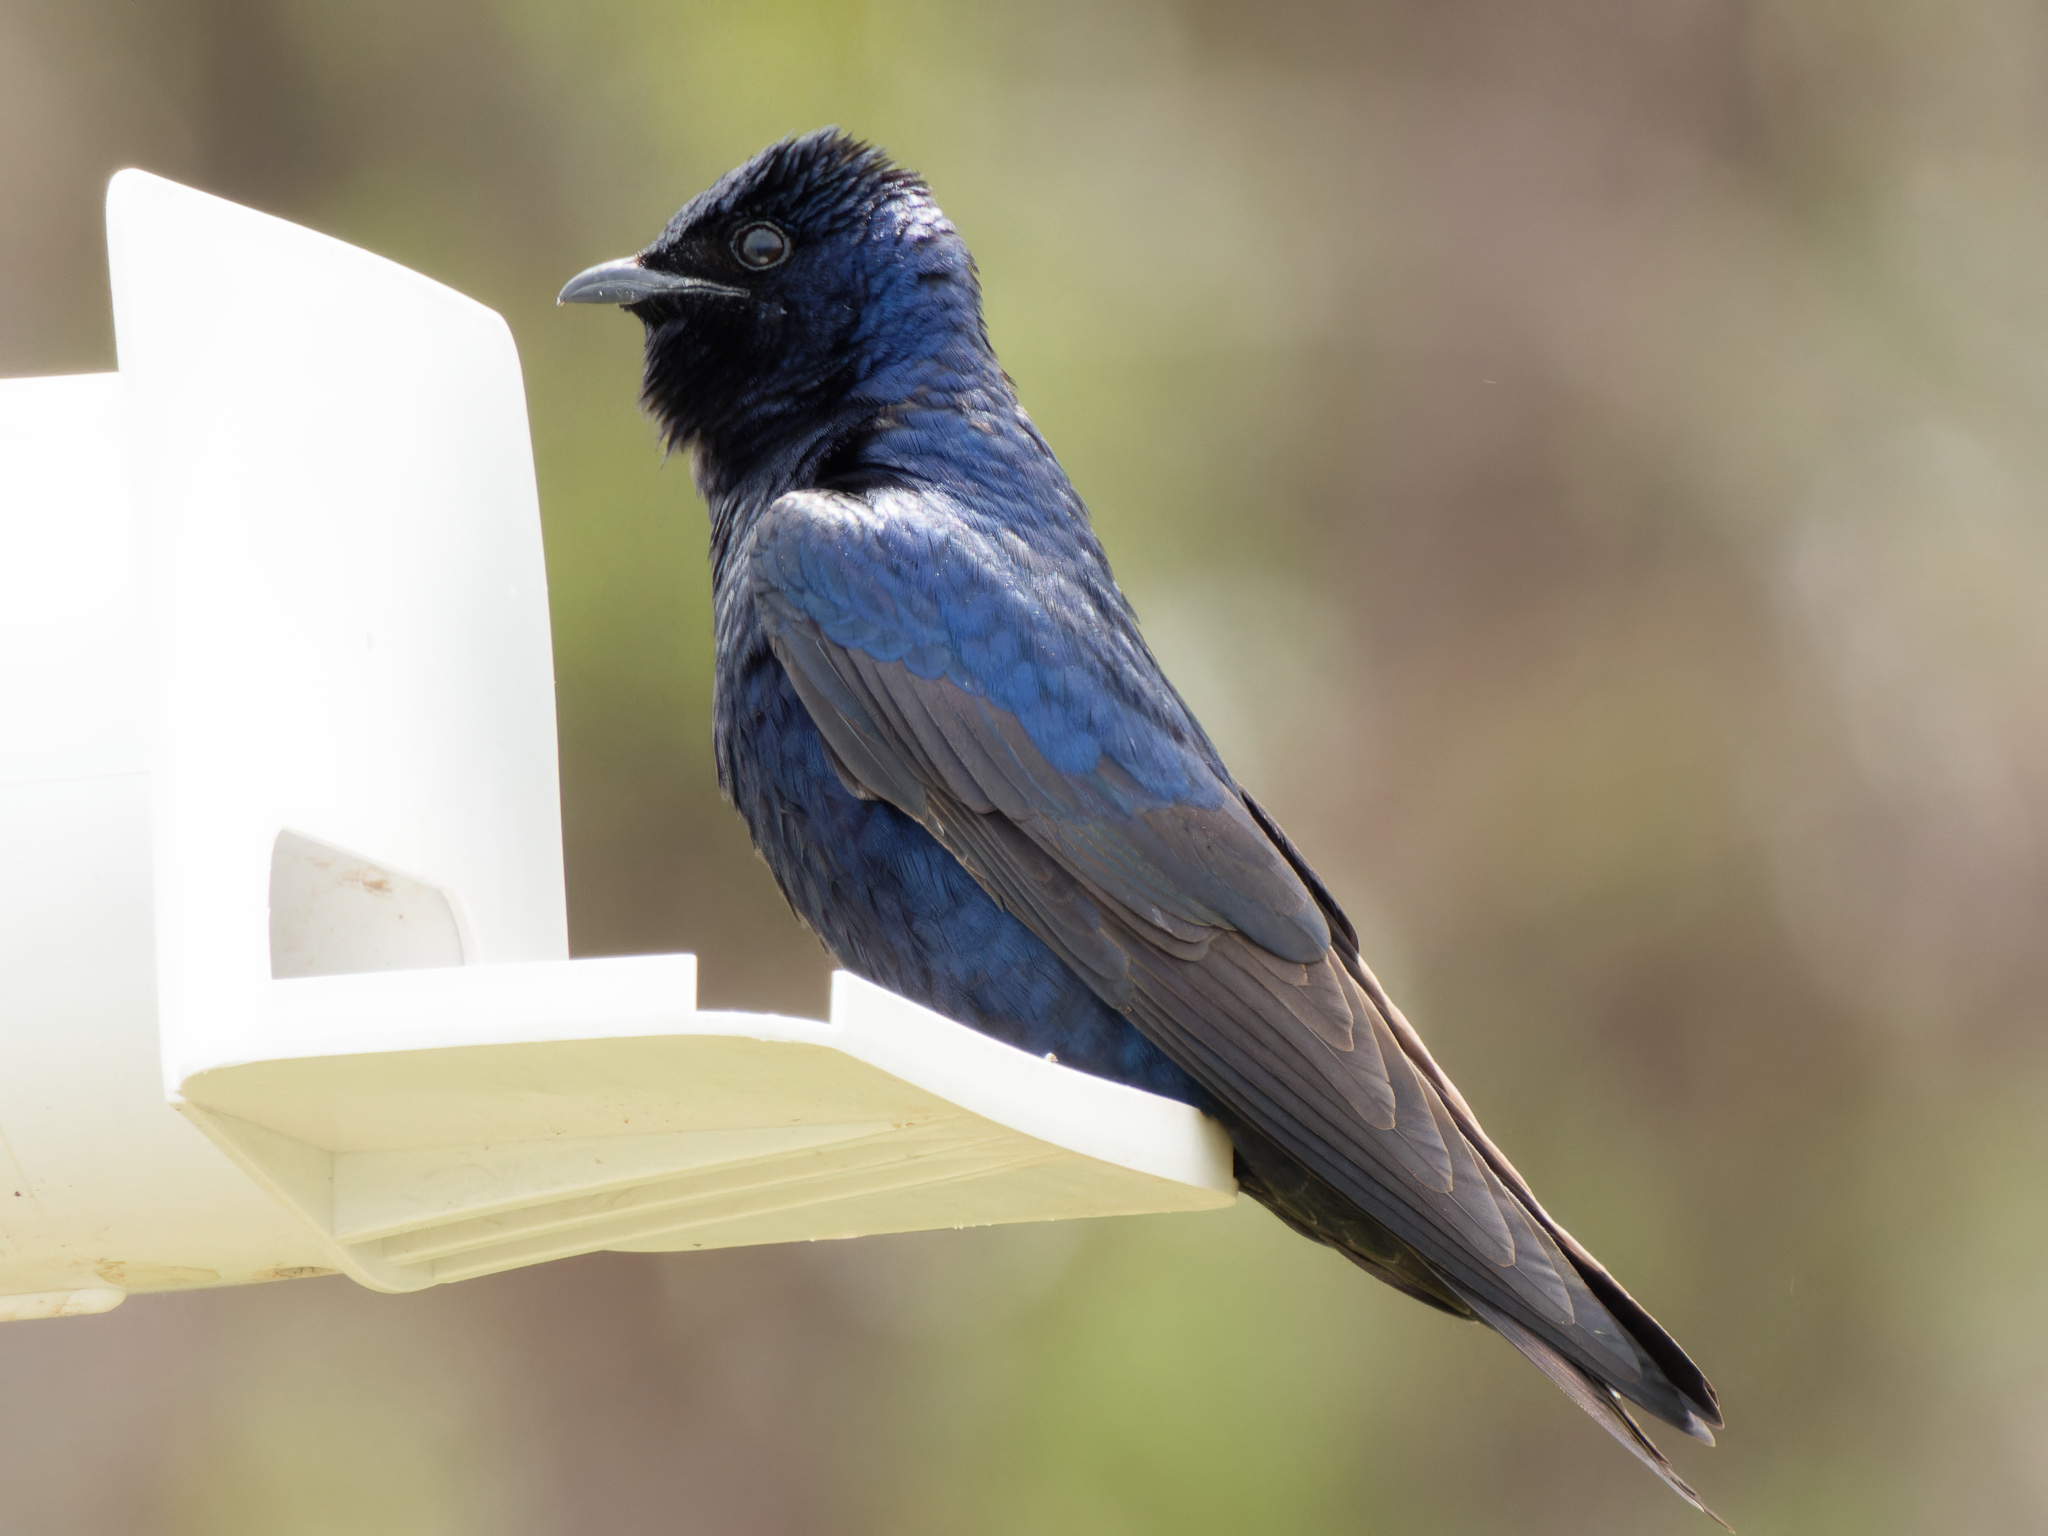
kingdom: Animalia
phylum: Chordata
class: Aves
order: Passeriformes
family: Hirundinidae
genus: Progne
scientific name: Progne subis
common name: Purple martin
